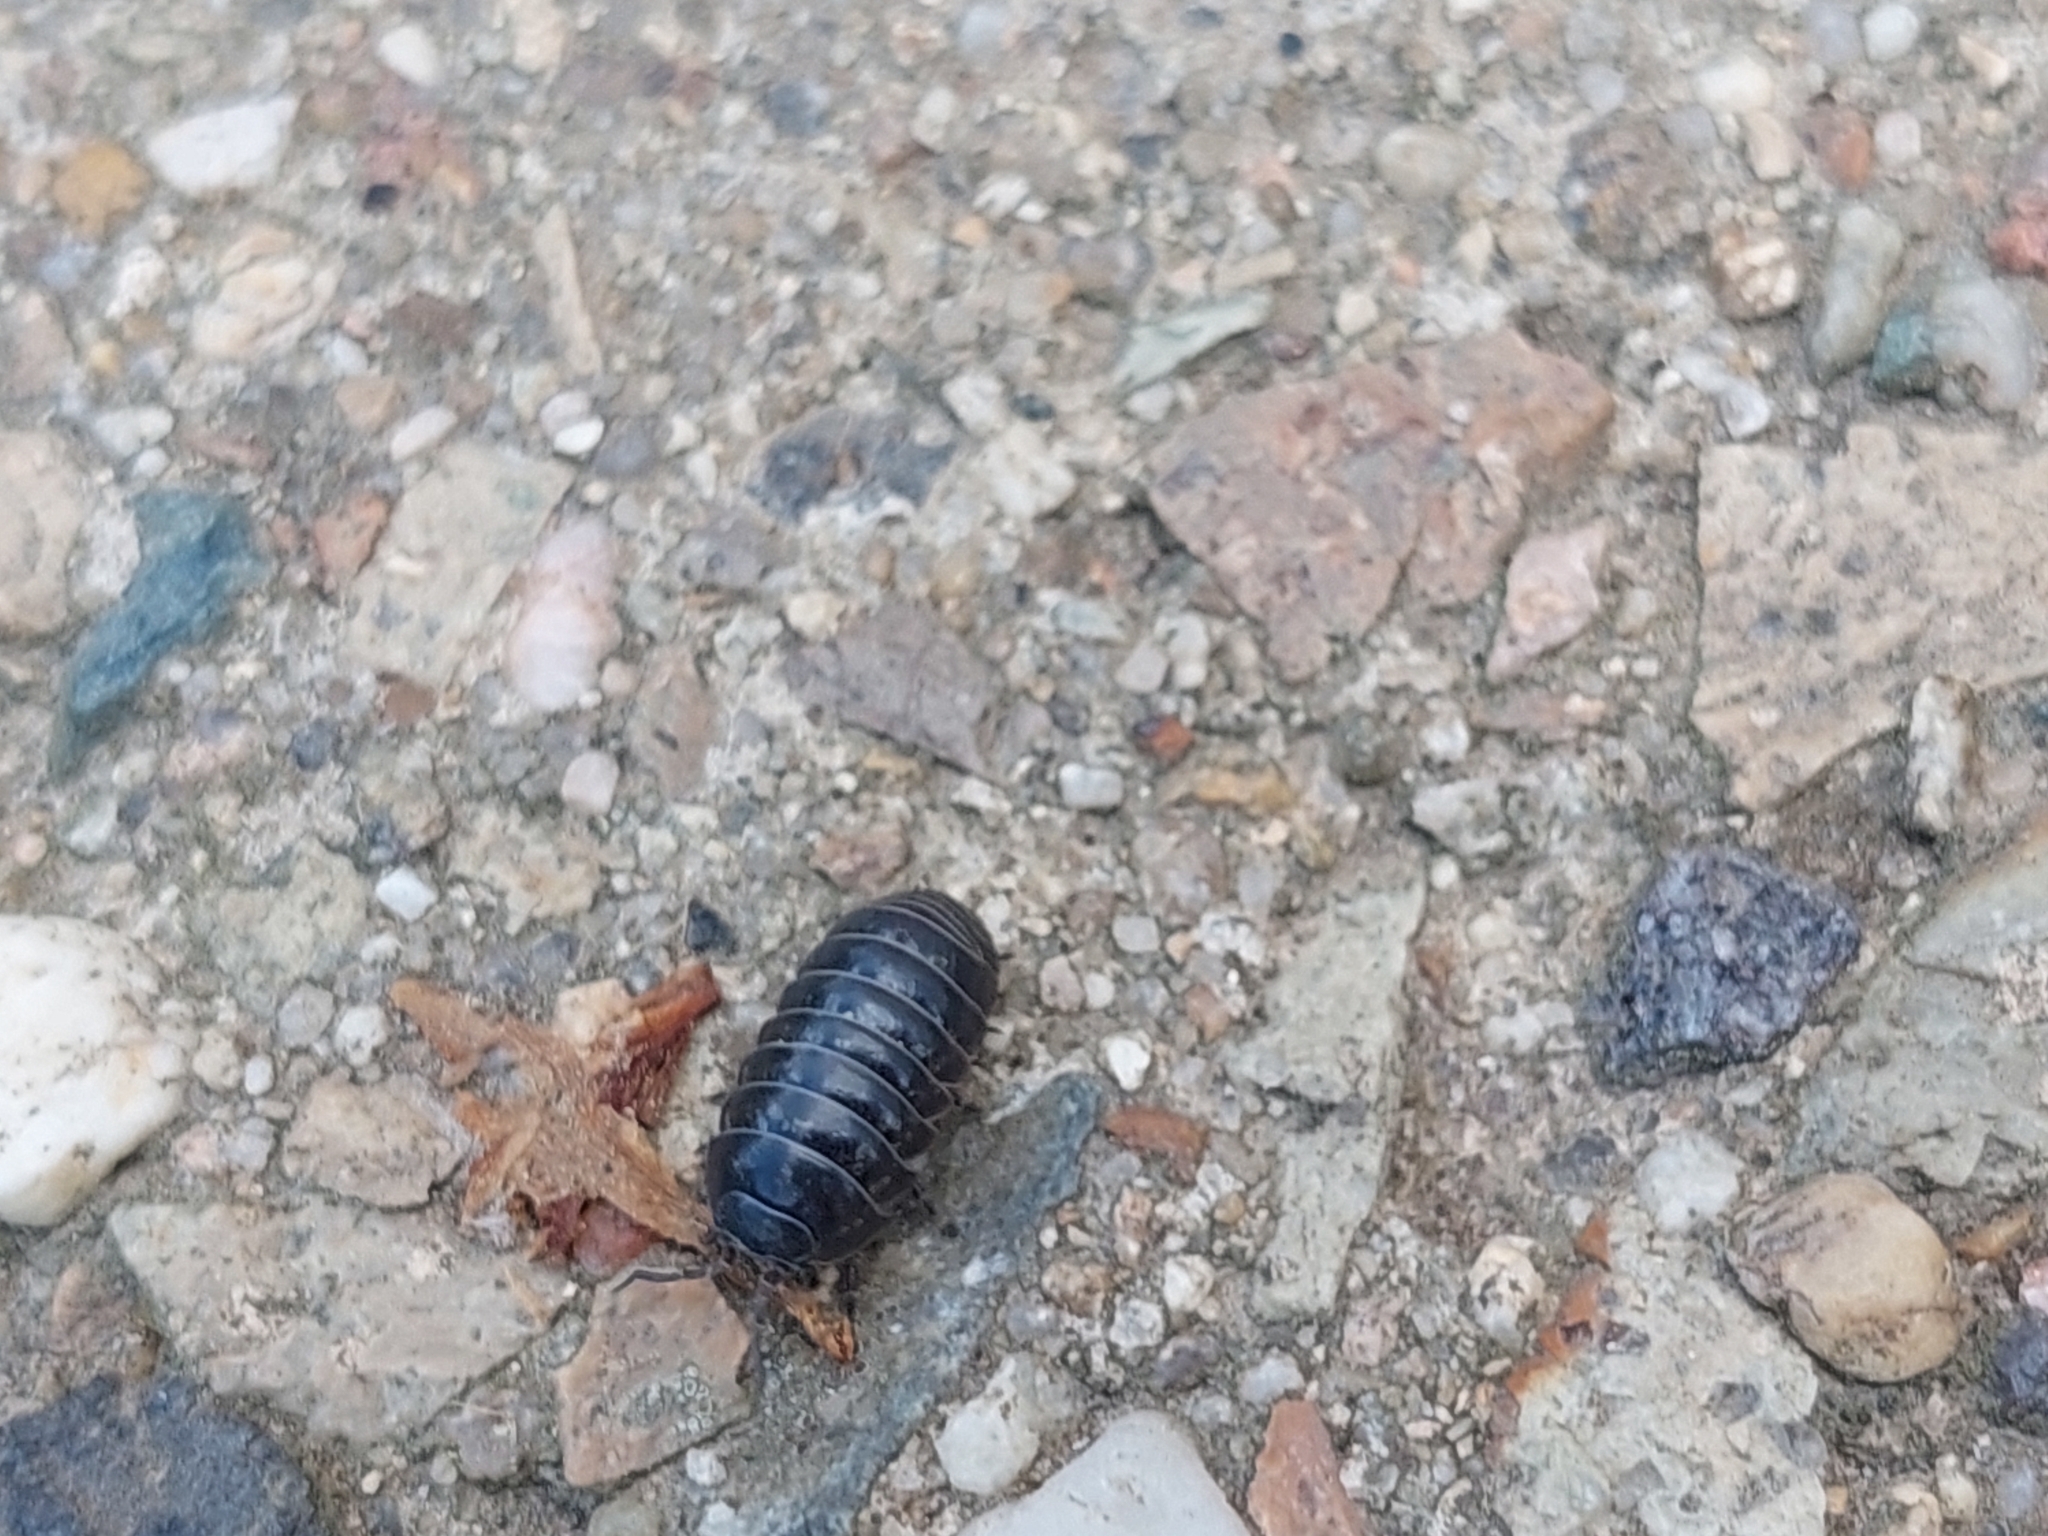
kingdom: Animalia
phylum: Arthropoda
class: Malacostraca
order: Isopoda
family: Armadillidiidae
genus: Armadillidium
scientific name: Armadillidium vulgare
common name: Common pill woodlouse
